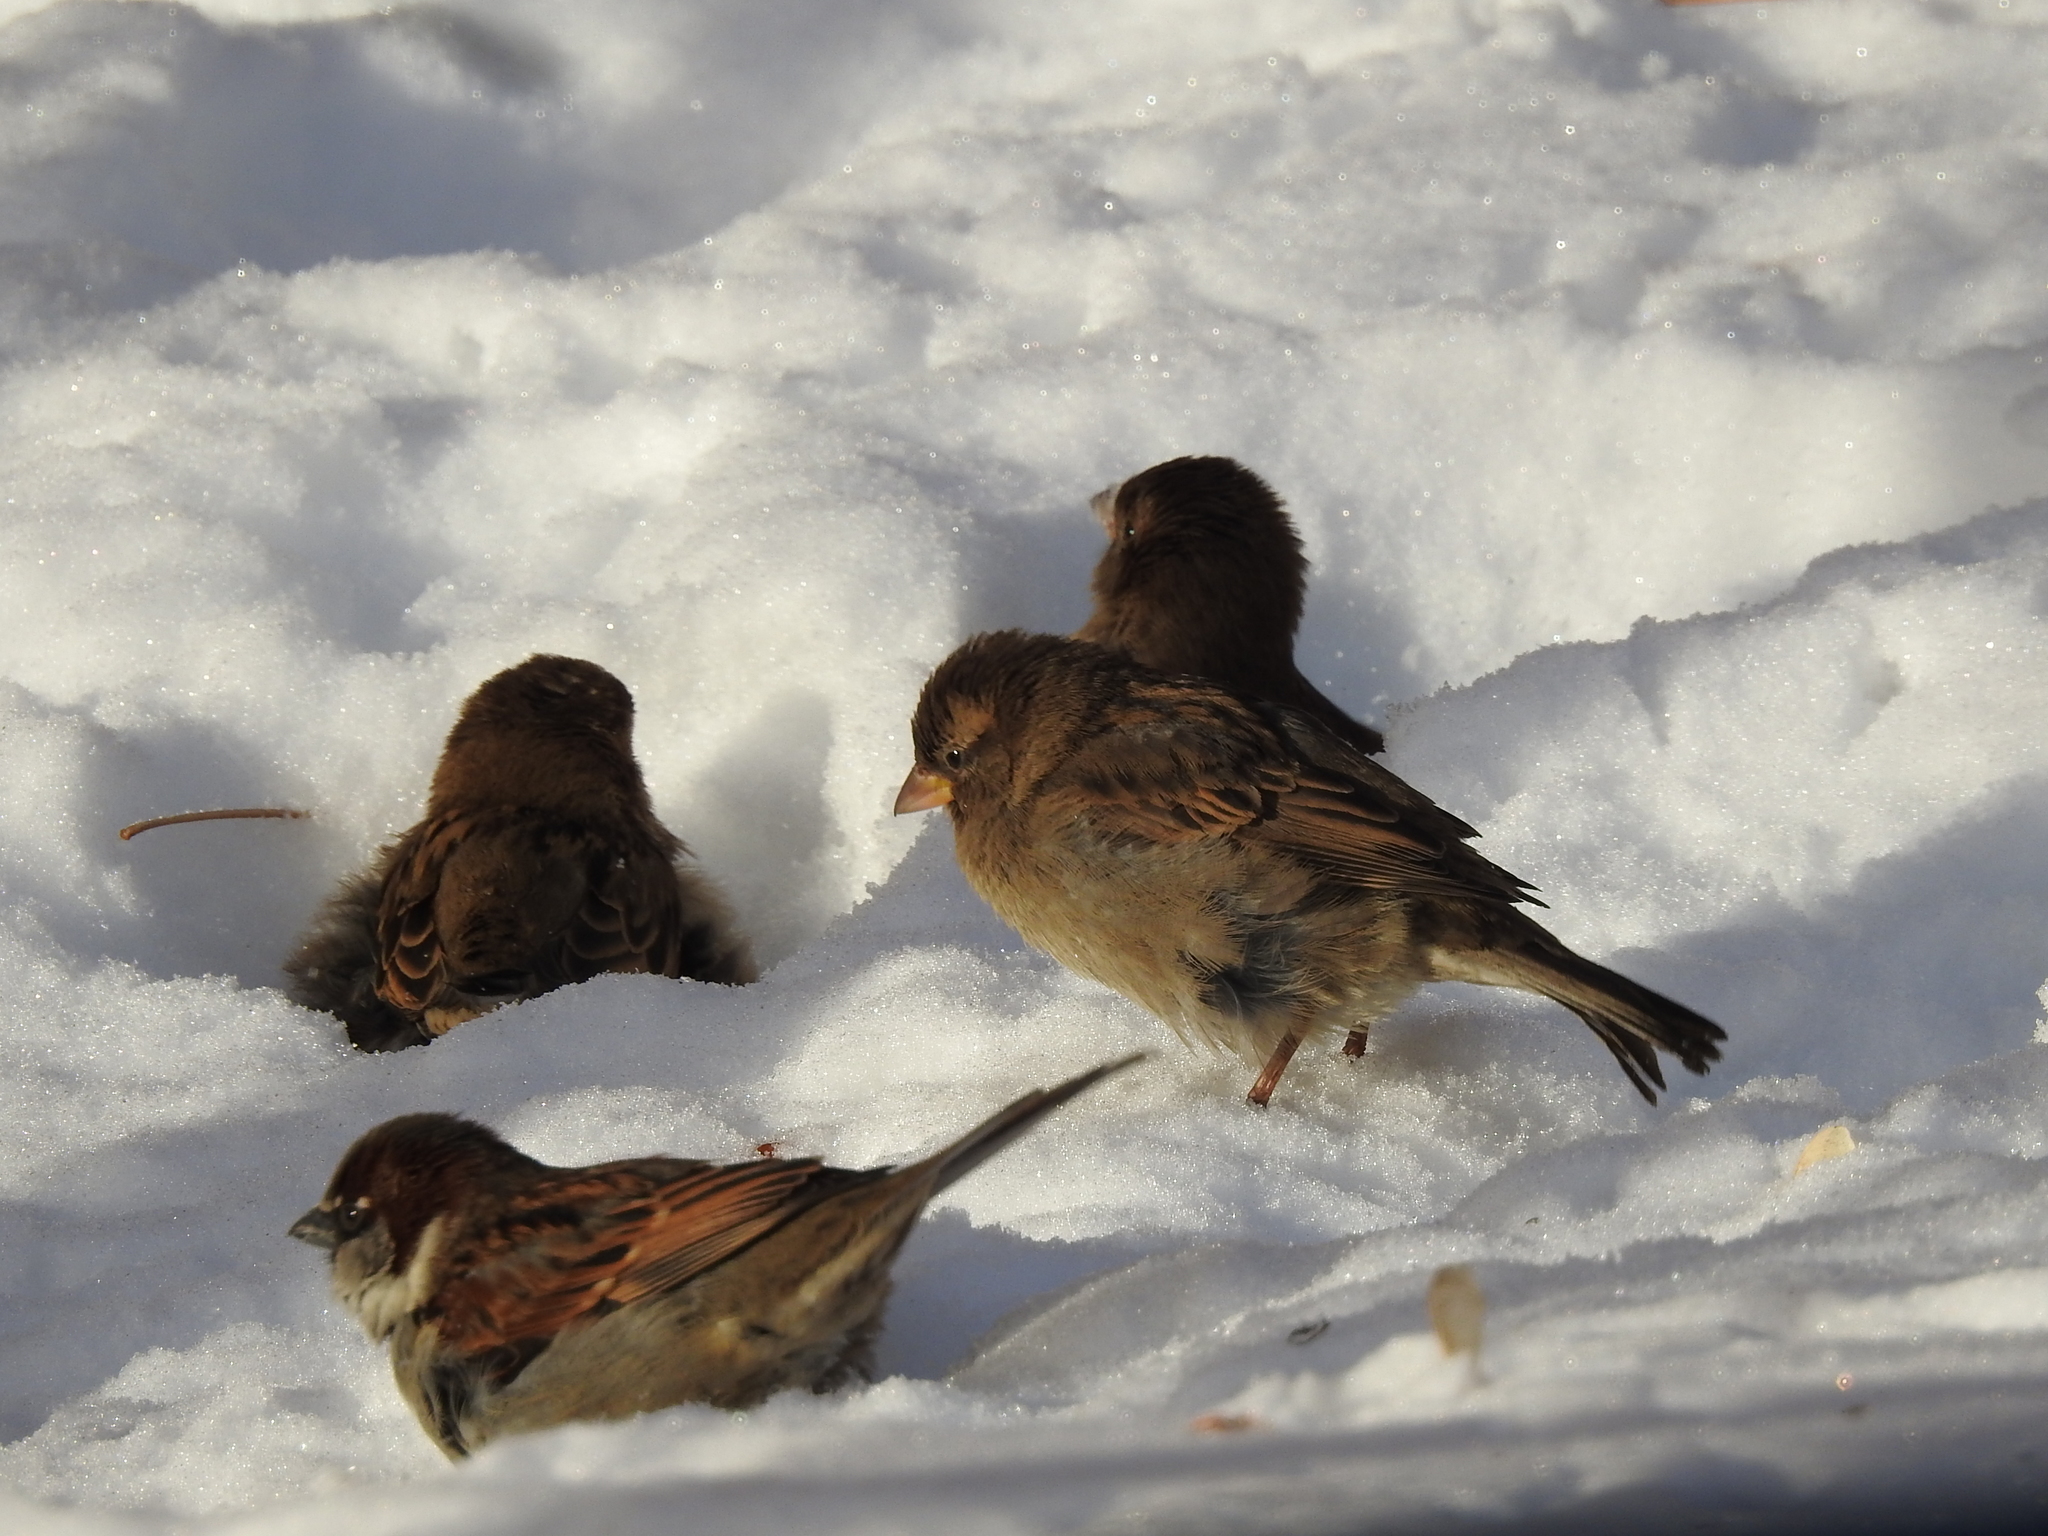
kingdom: Animalia
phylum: Chordata
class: Aves
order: Passeriformes
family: Passeridae
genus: Passer
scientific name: Passer domesticus
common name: House sparrow
